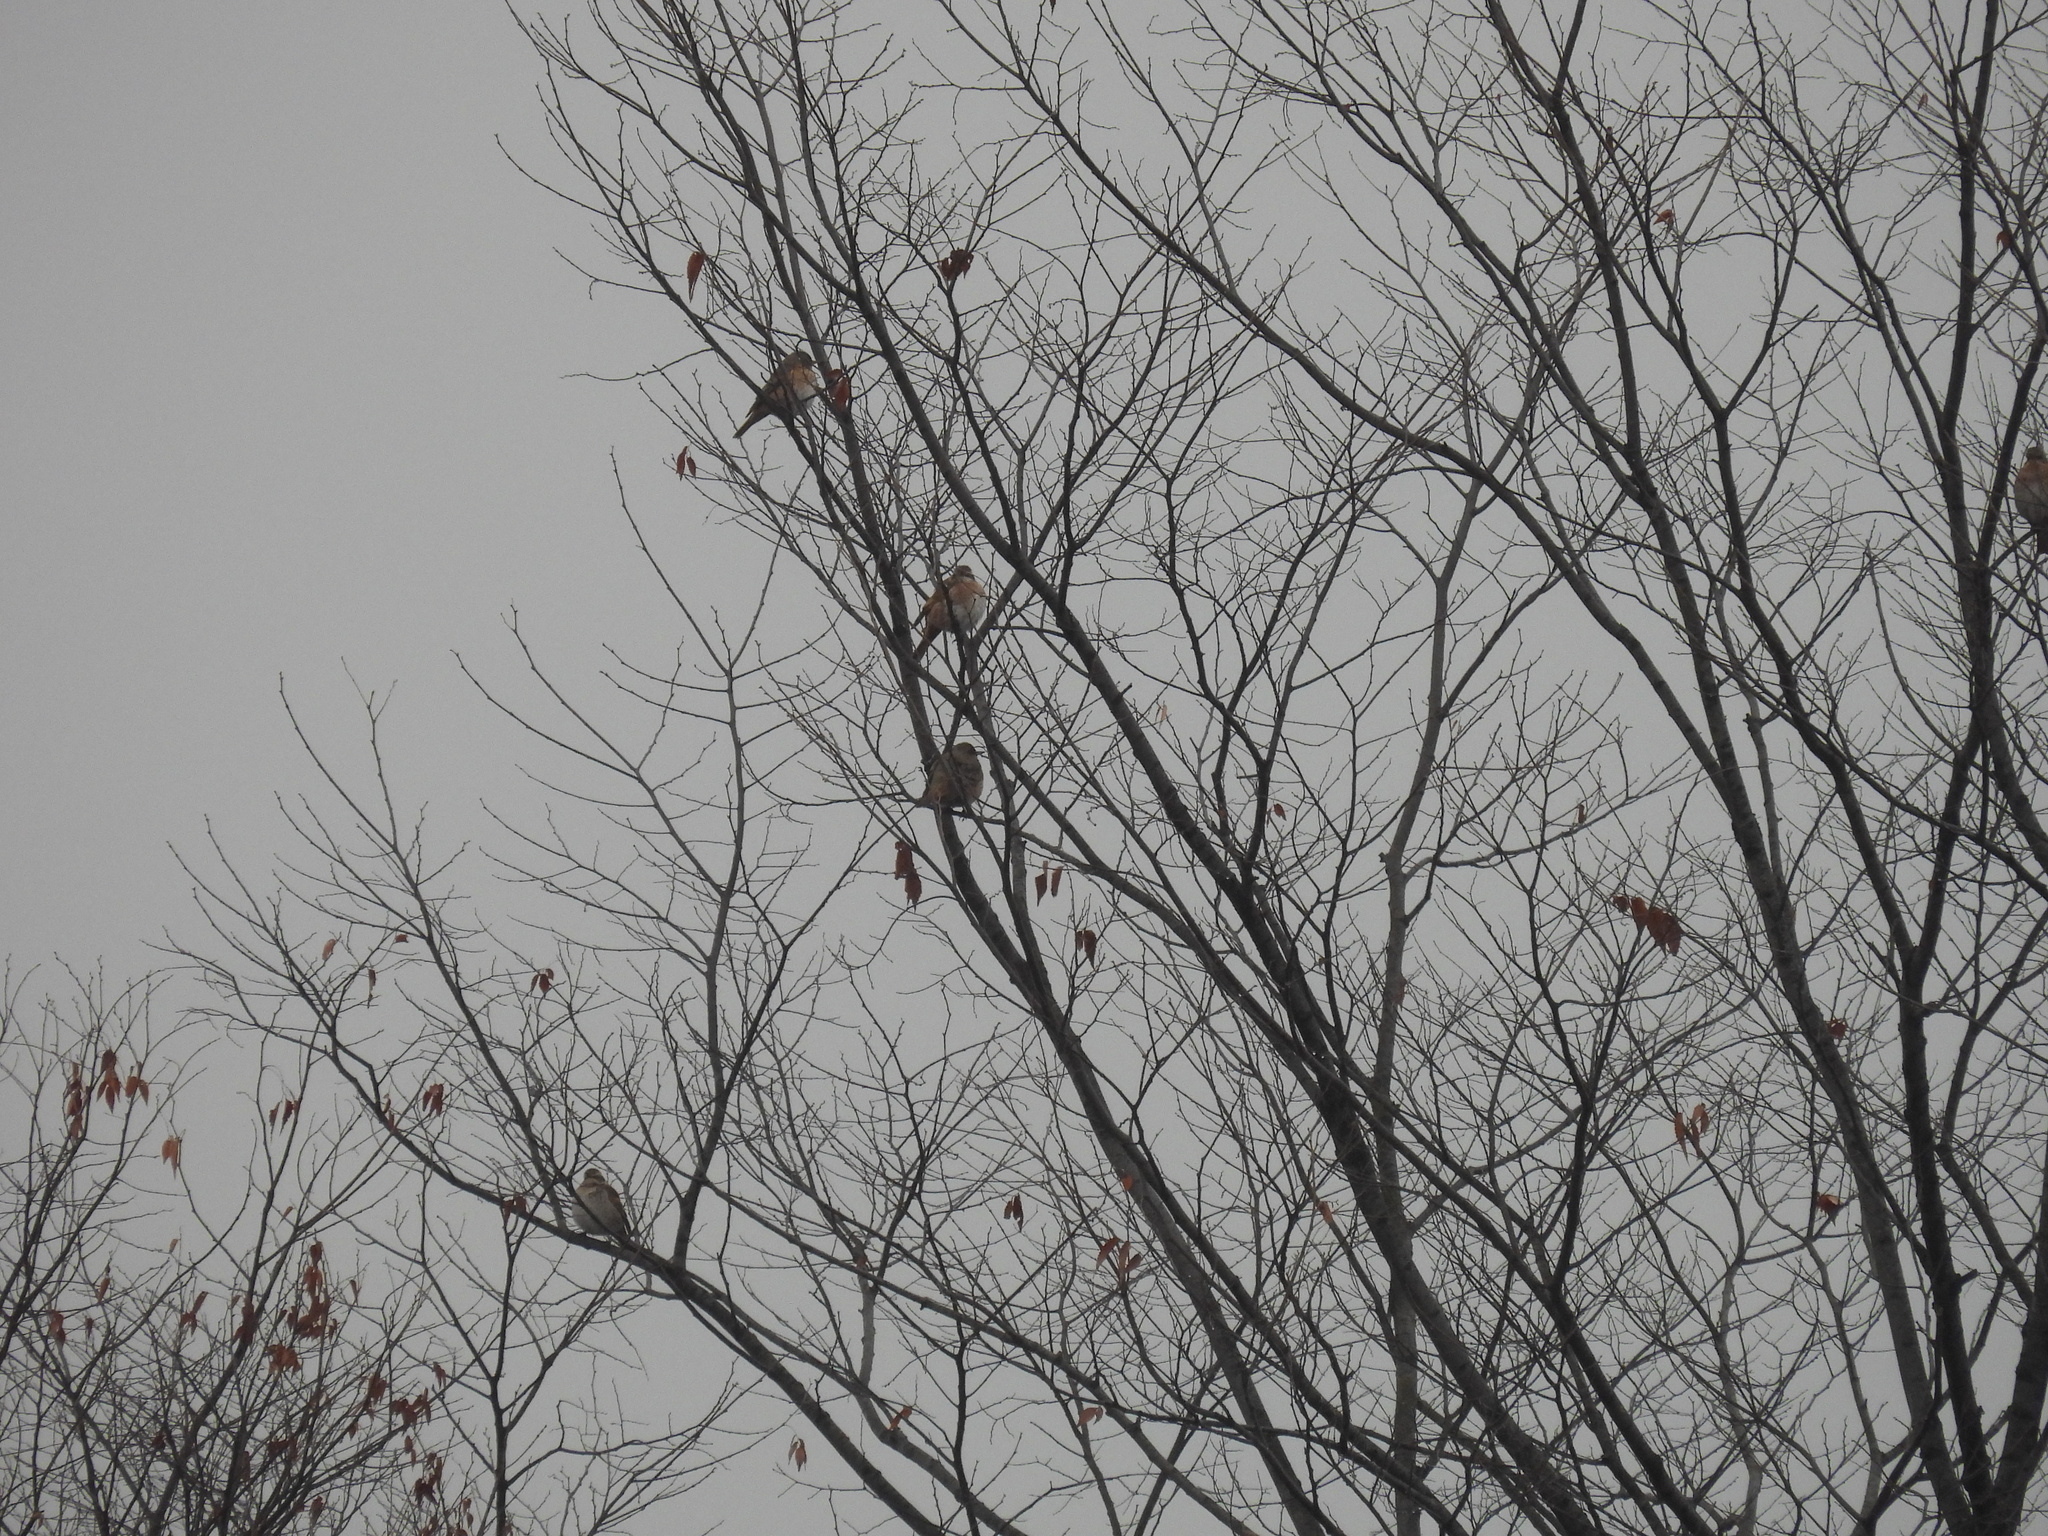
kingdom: Animalia
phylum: Chordata
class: Aves
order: Passeriformes
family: Turdidae
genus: Turdus
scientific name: Turdus naumanni
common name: Naumann's thrush
